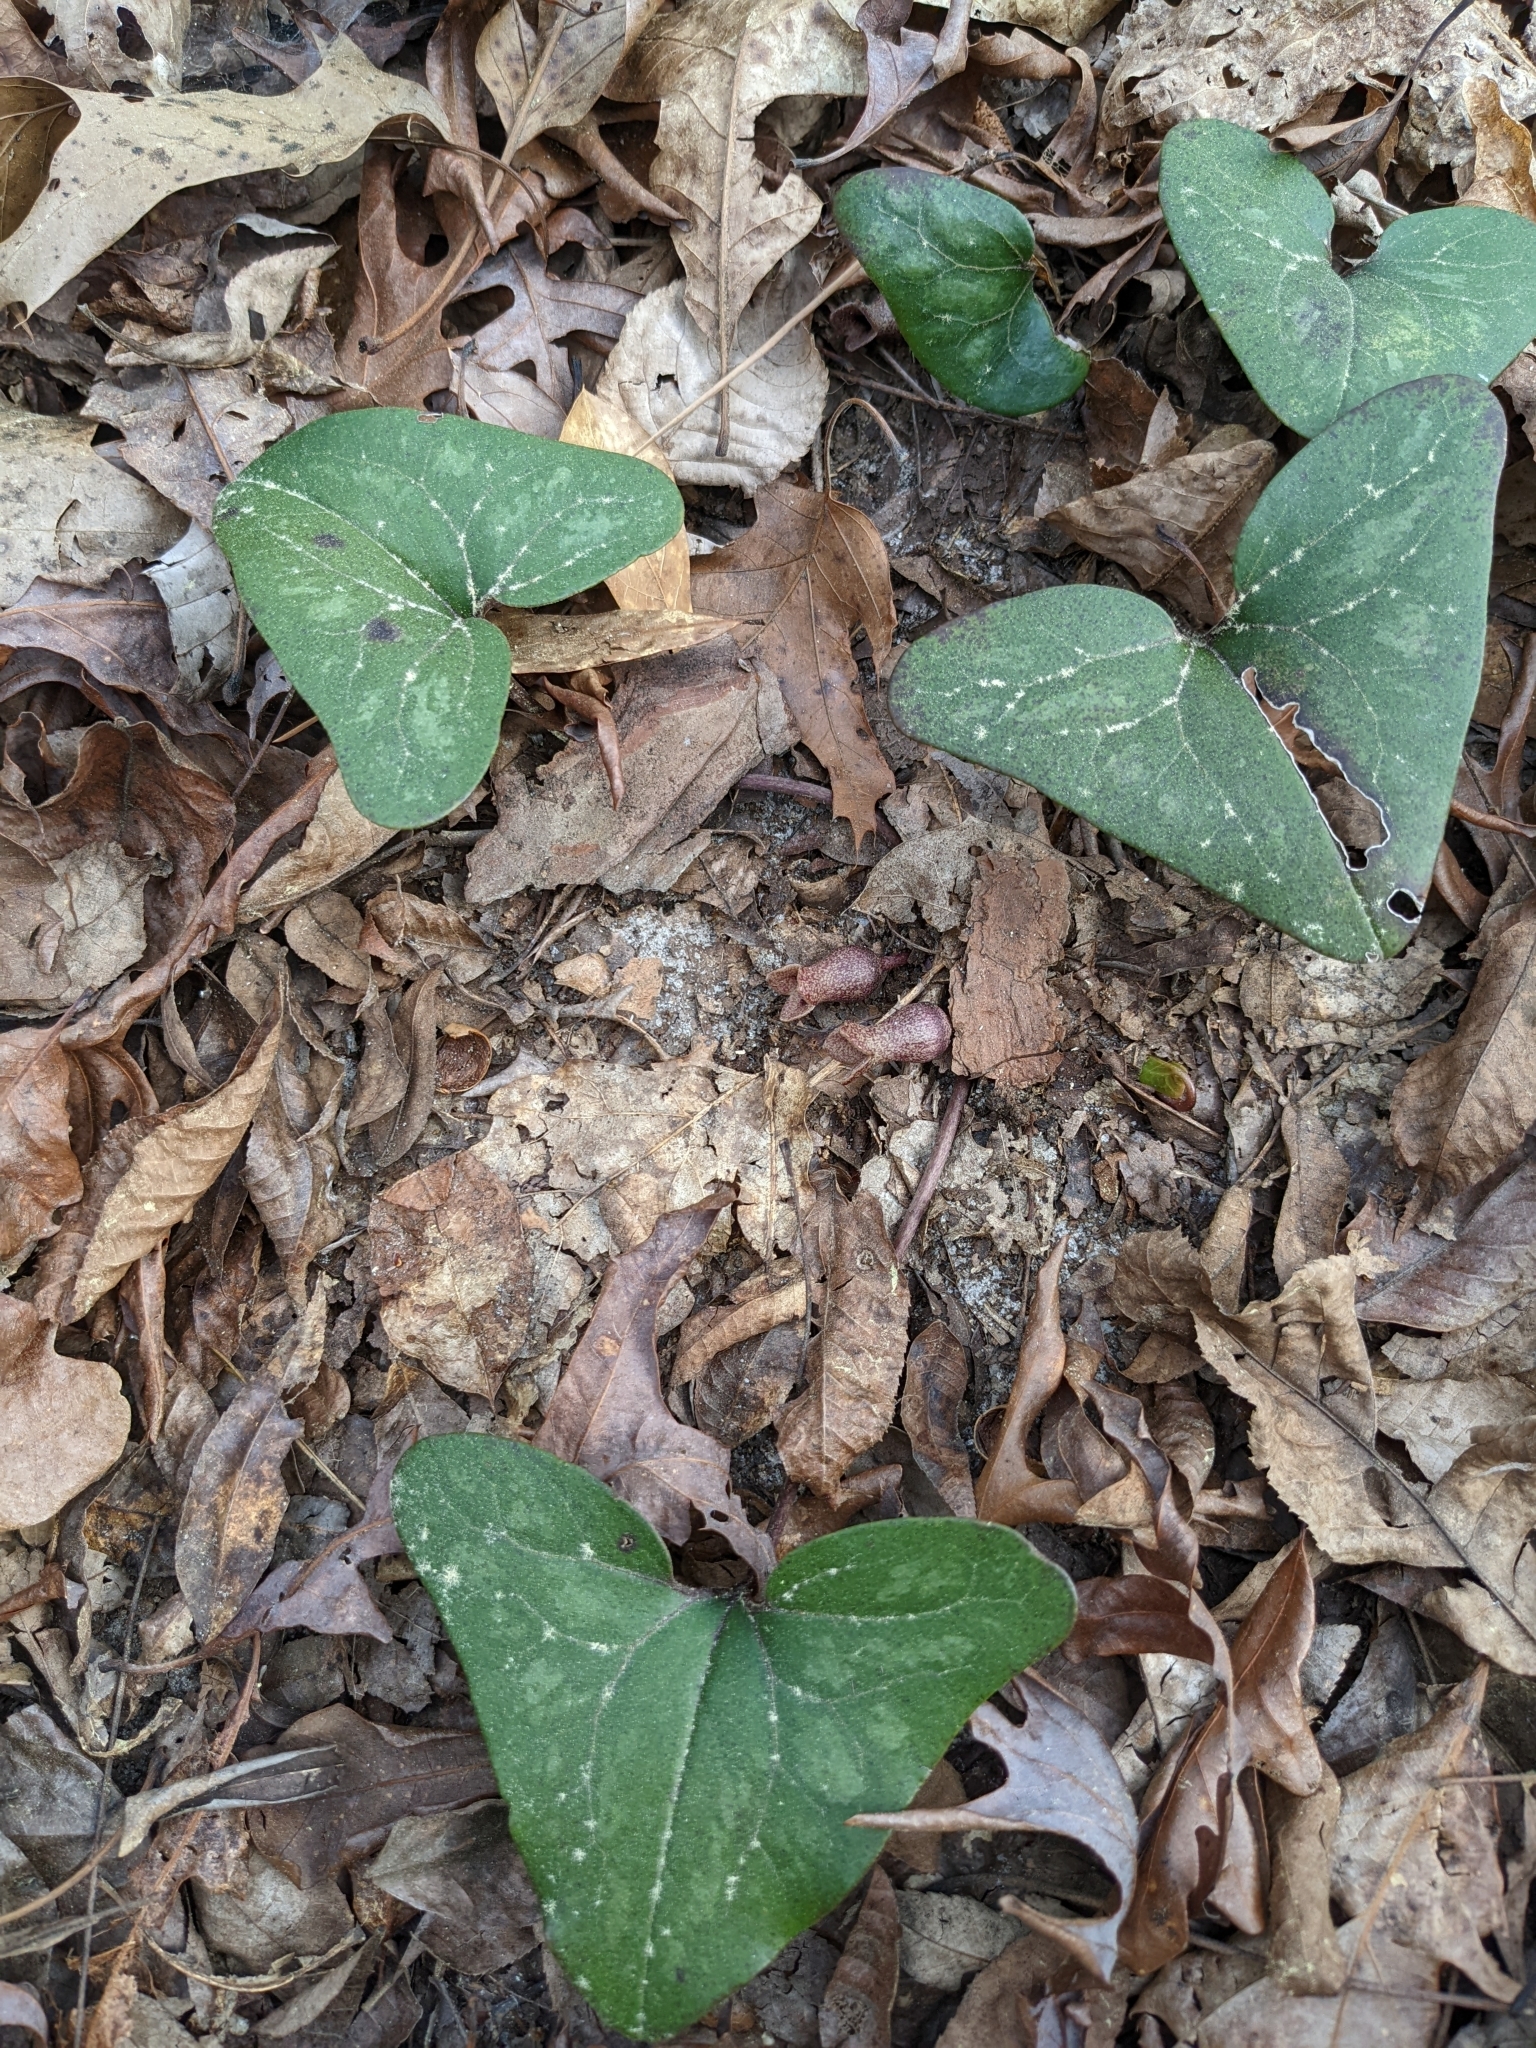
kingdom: Plantae
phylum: Tracheophyta
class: Magnoliopsida
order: Piperales
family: Aristolochiaceae
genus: Hexastylis
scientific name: Hexastylis arifolia
